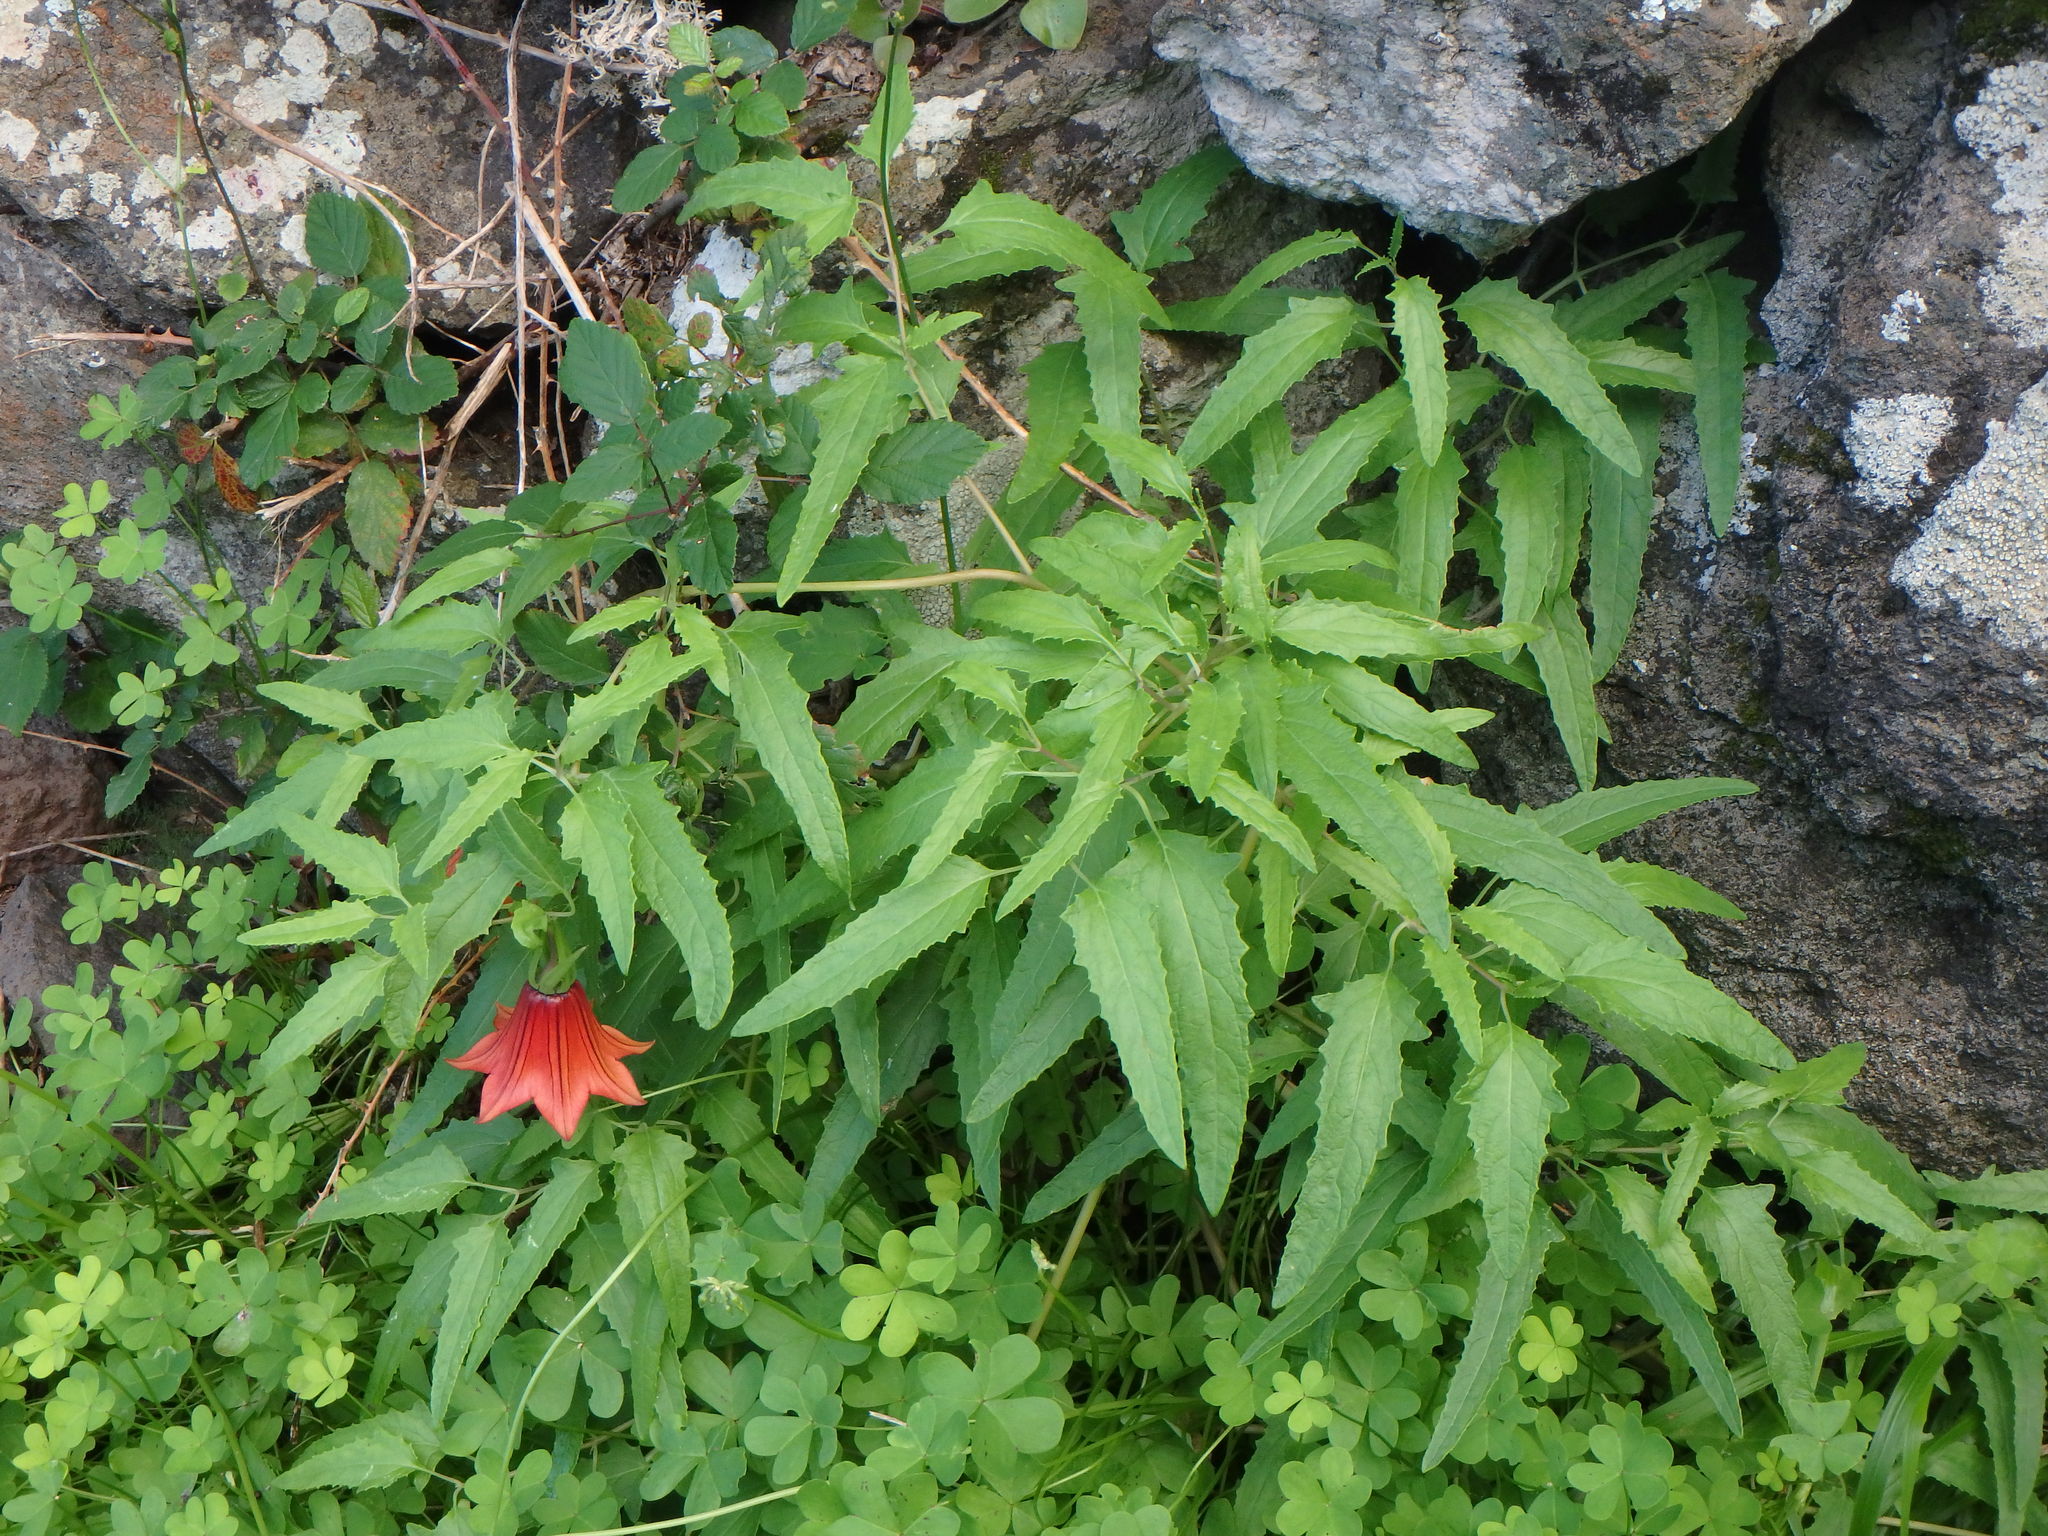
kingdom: Plantae
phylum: Tracheophyta
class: Magnoliopsida
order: Asterales
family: Campanulaceae
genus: Canarina
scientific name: Canarina canariensis
